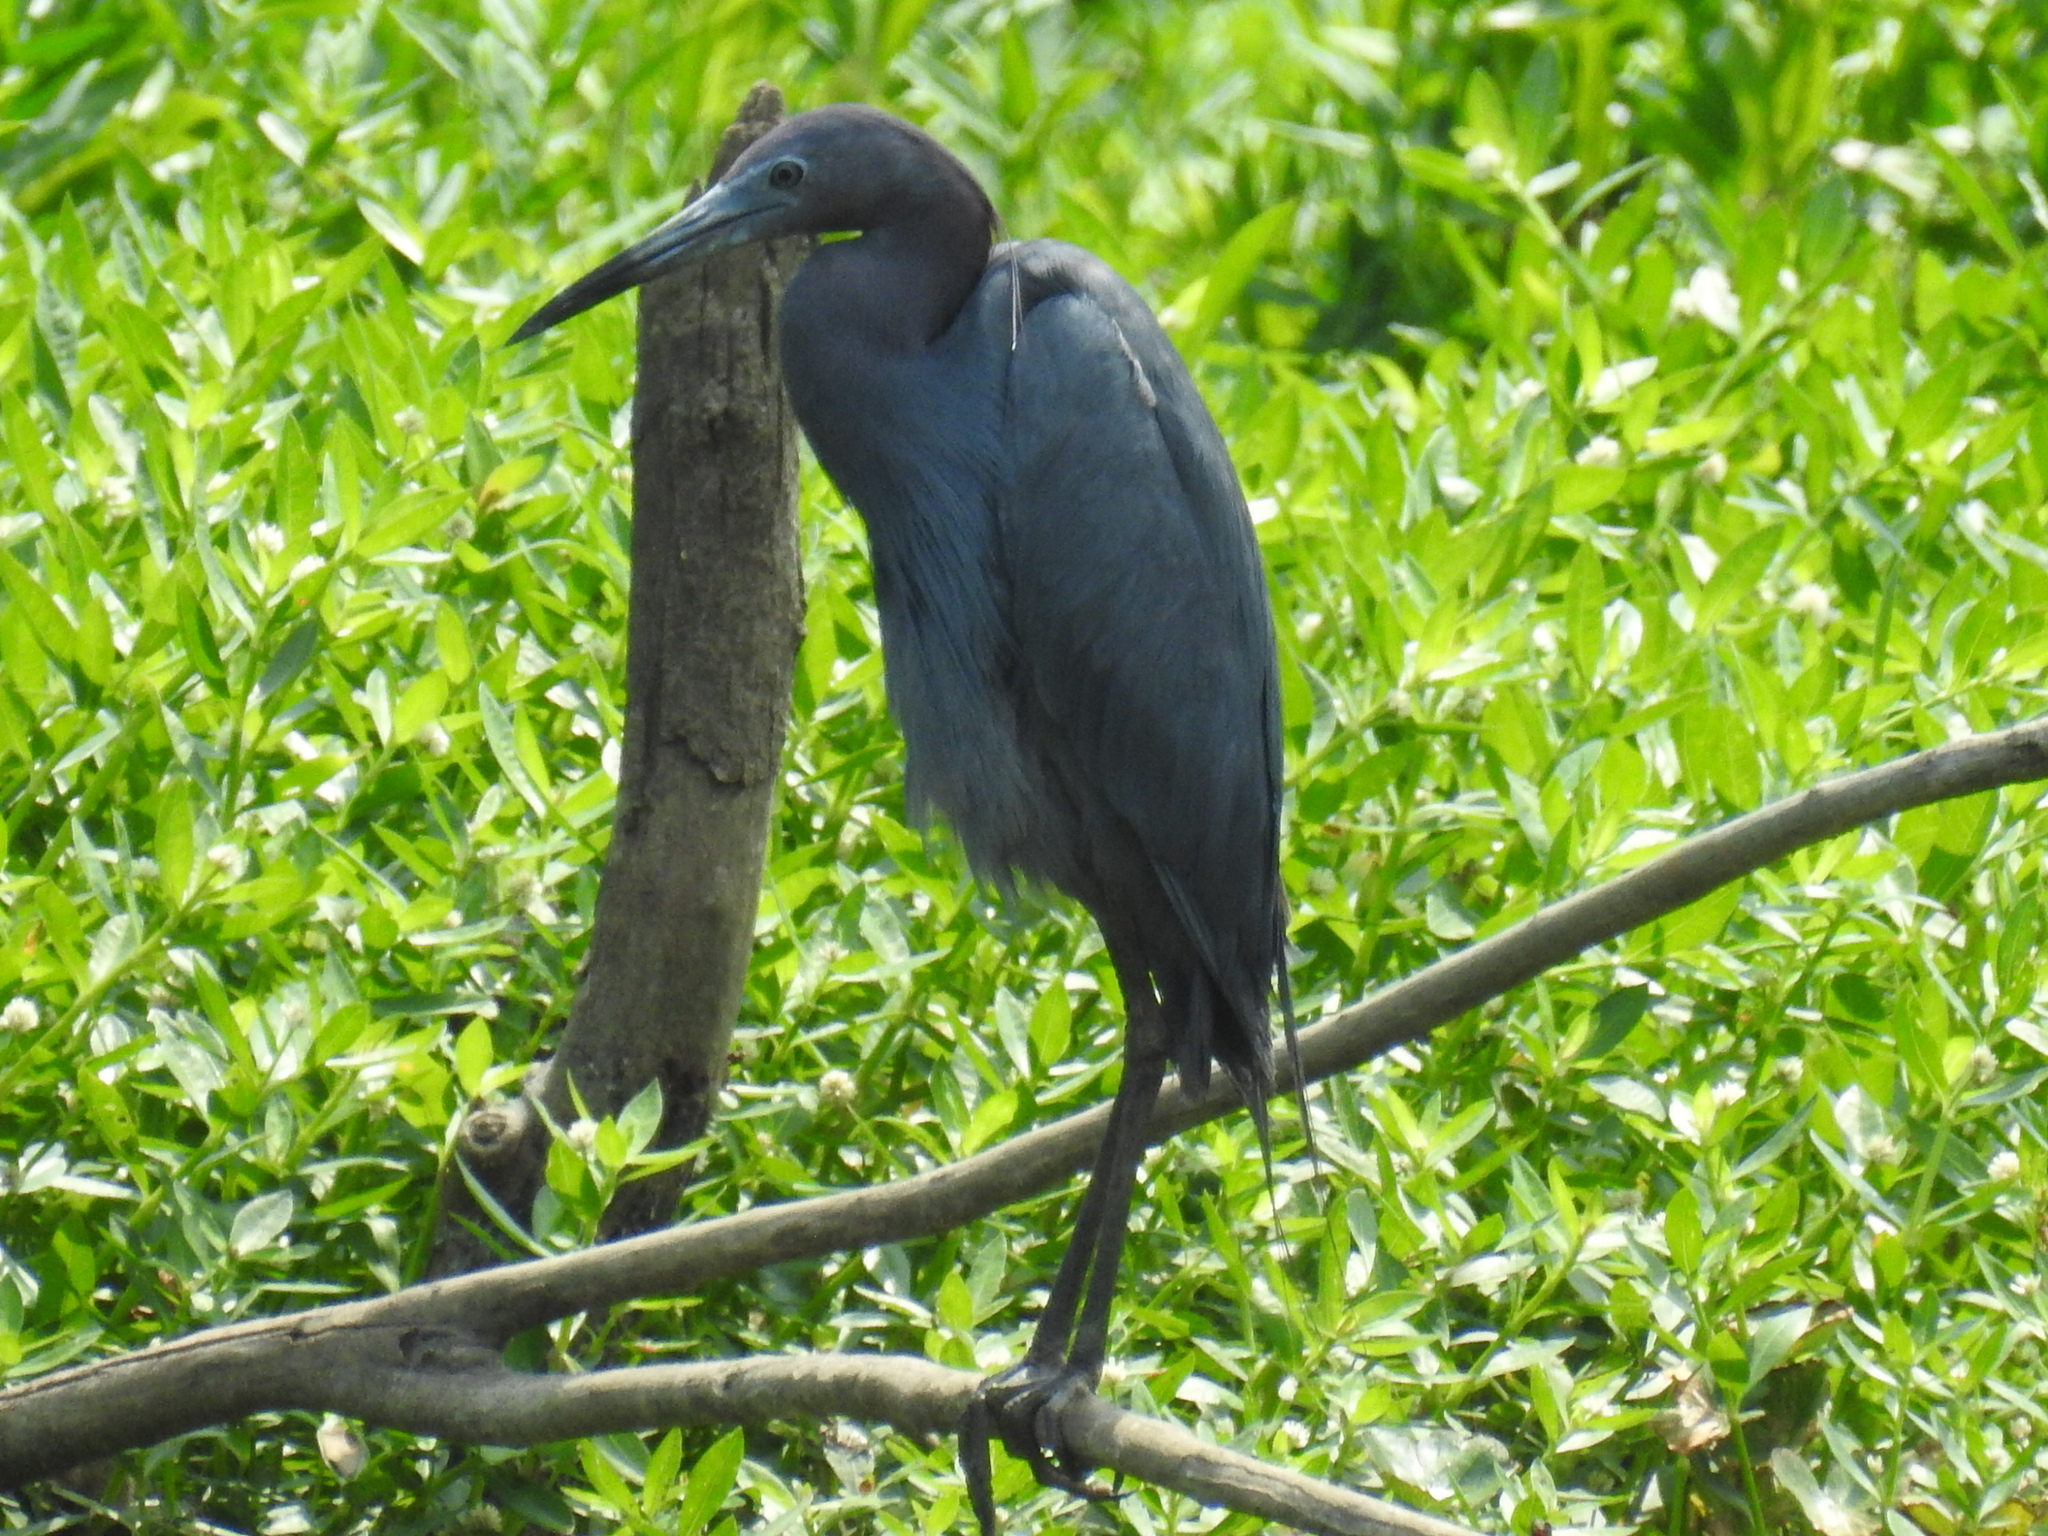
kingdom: Animalia
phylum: Chordata
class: Aves
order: Pelecaniformes
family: Ardeidae
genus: Egretta
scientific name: Egretta caerulea
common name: Little blue heron
